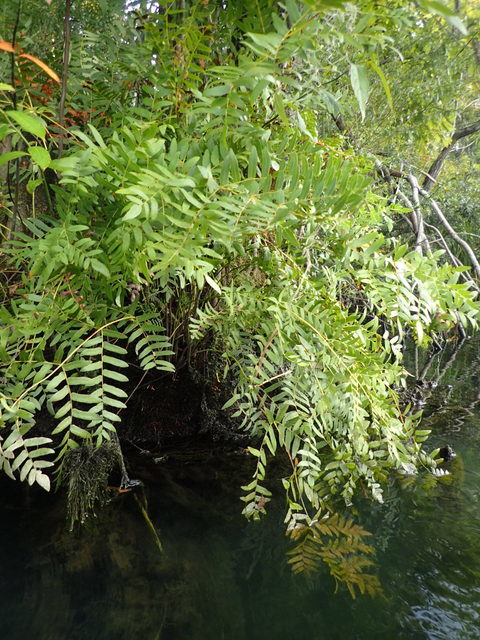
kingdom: Plantae
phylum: Tracheophyta
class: Polypodiopsida
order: Osmundales
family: Osmundaceae
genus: Osmunda
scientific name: Osmunda spectabilis
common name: American royal fern
